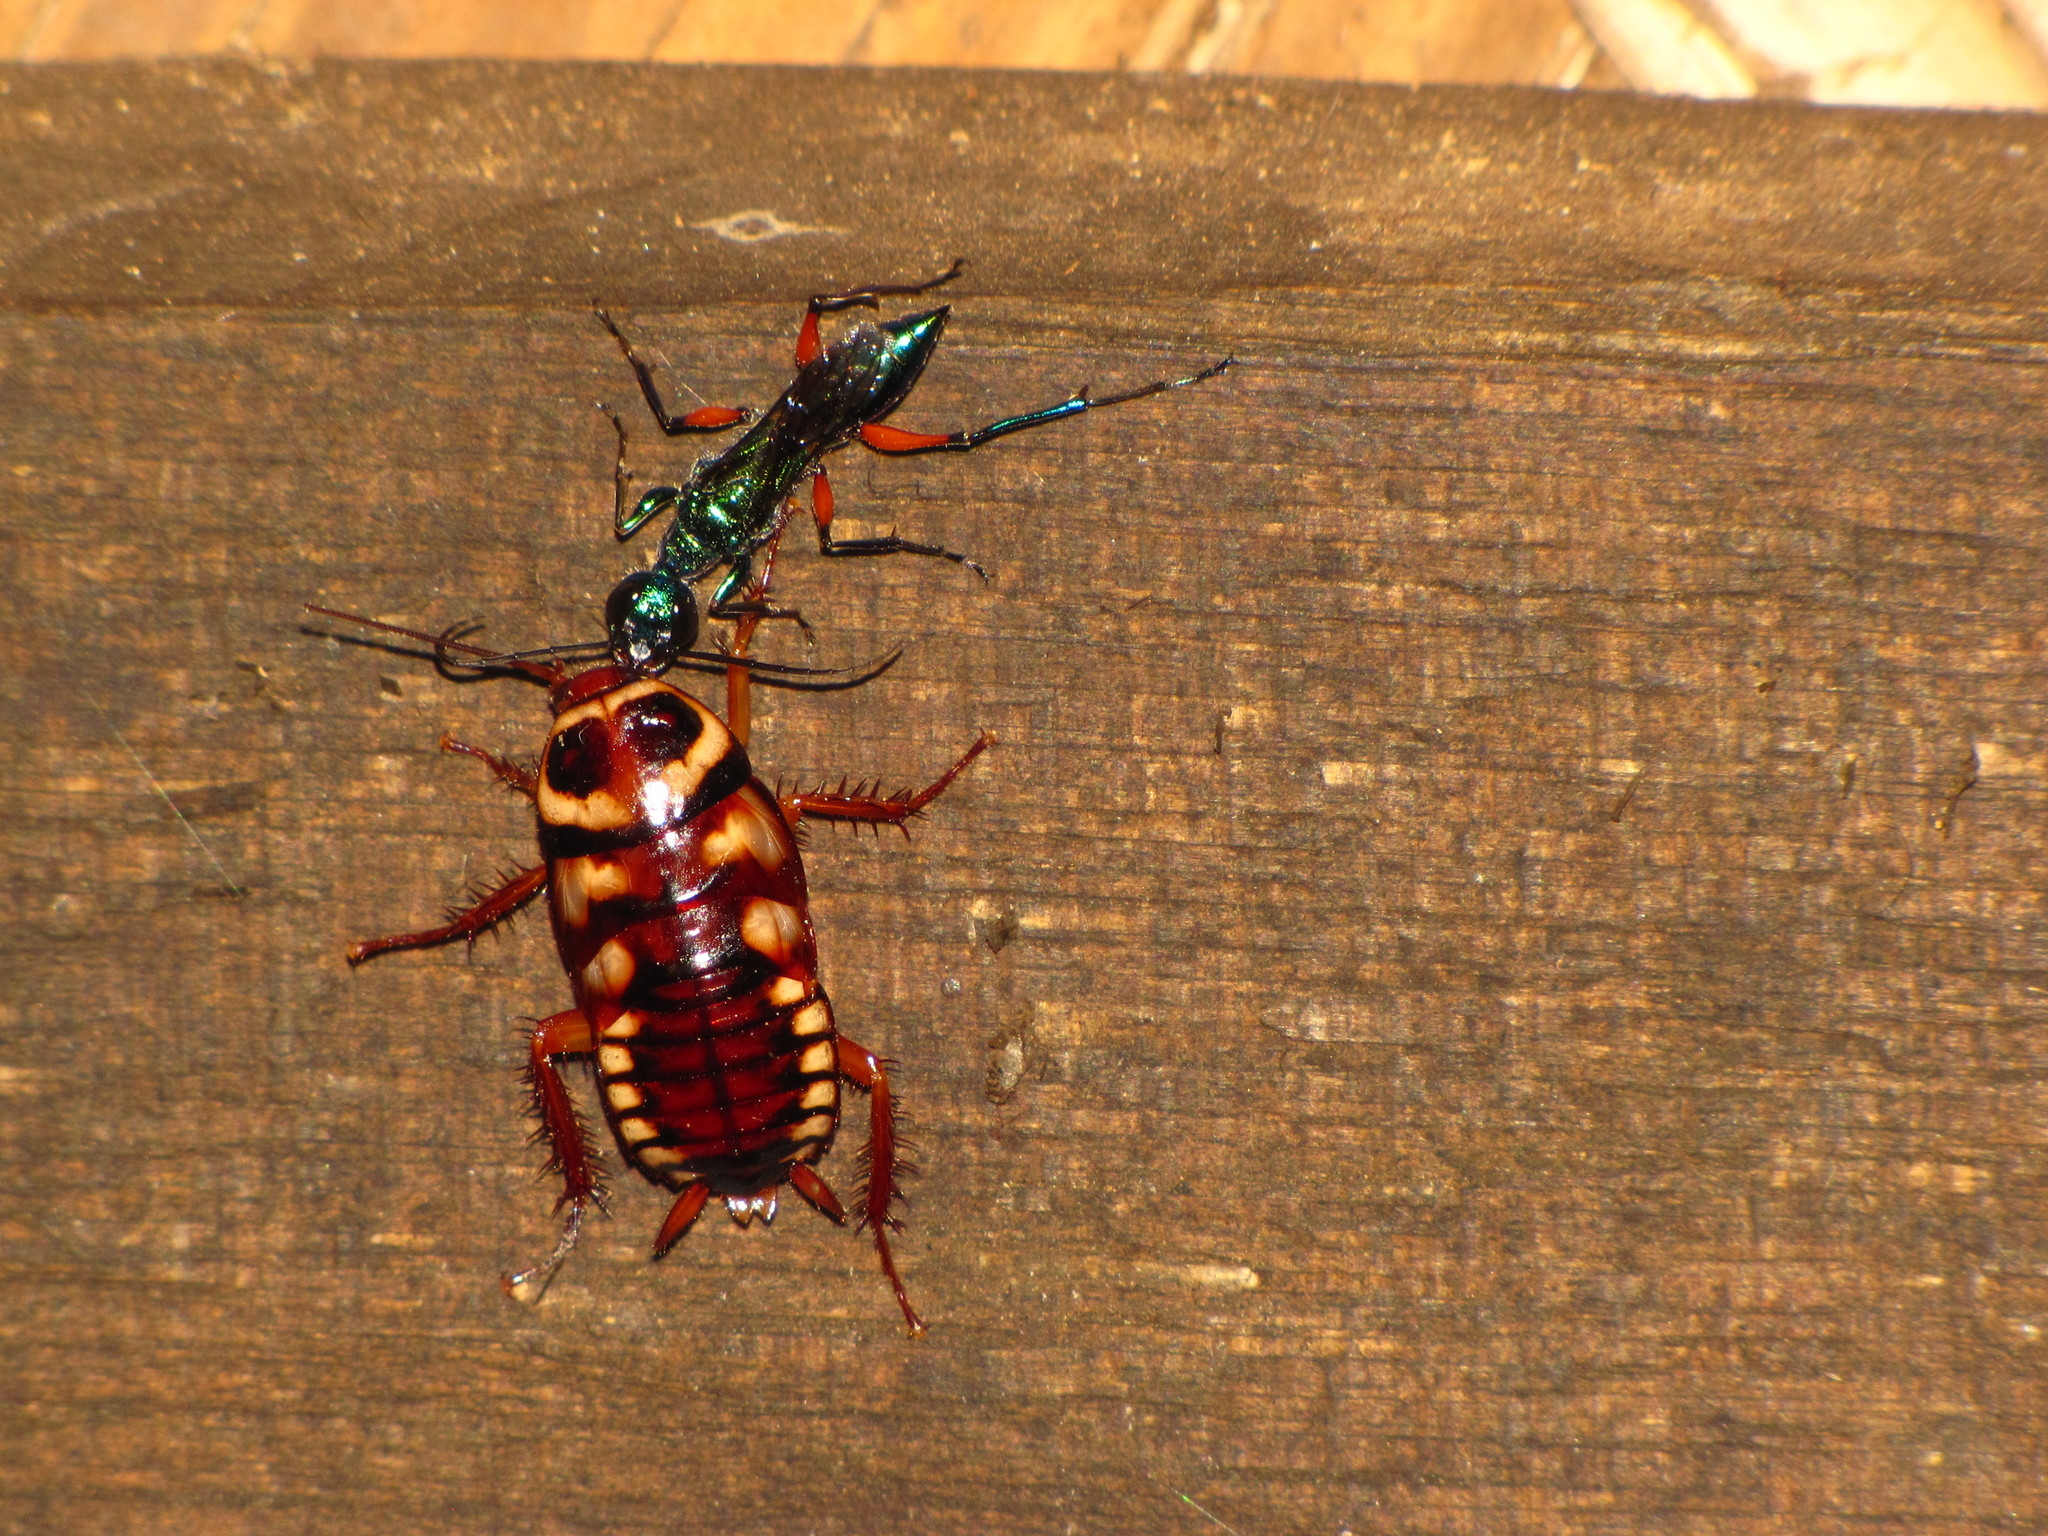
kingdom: Animalia
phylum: Arthropoda
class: Insecta
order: Hymenoptera
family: Ampulicidae
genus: Ampulex
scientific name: Ampulex compressa
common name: Emerald cockroach wasp
